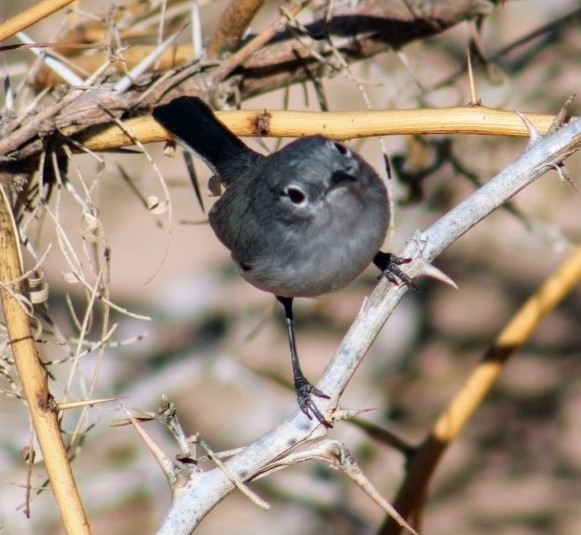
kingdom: Animalia
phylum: Chordata
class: Aves
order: Passeriformes
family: Polioptilidae
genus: Polioptila
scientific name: Polioptila caerulea
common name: Blue-gray gnatcatcher
